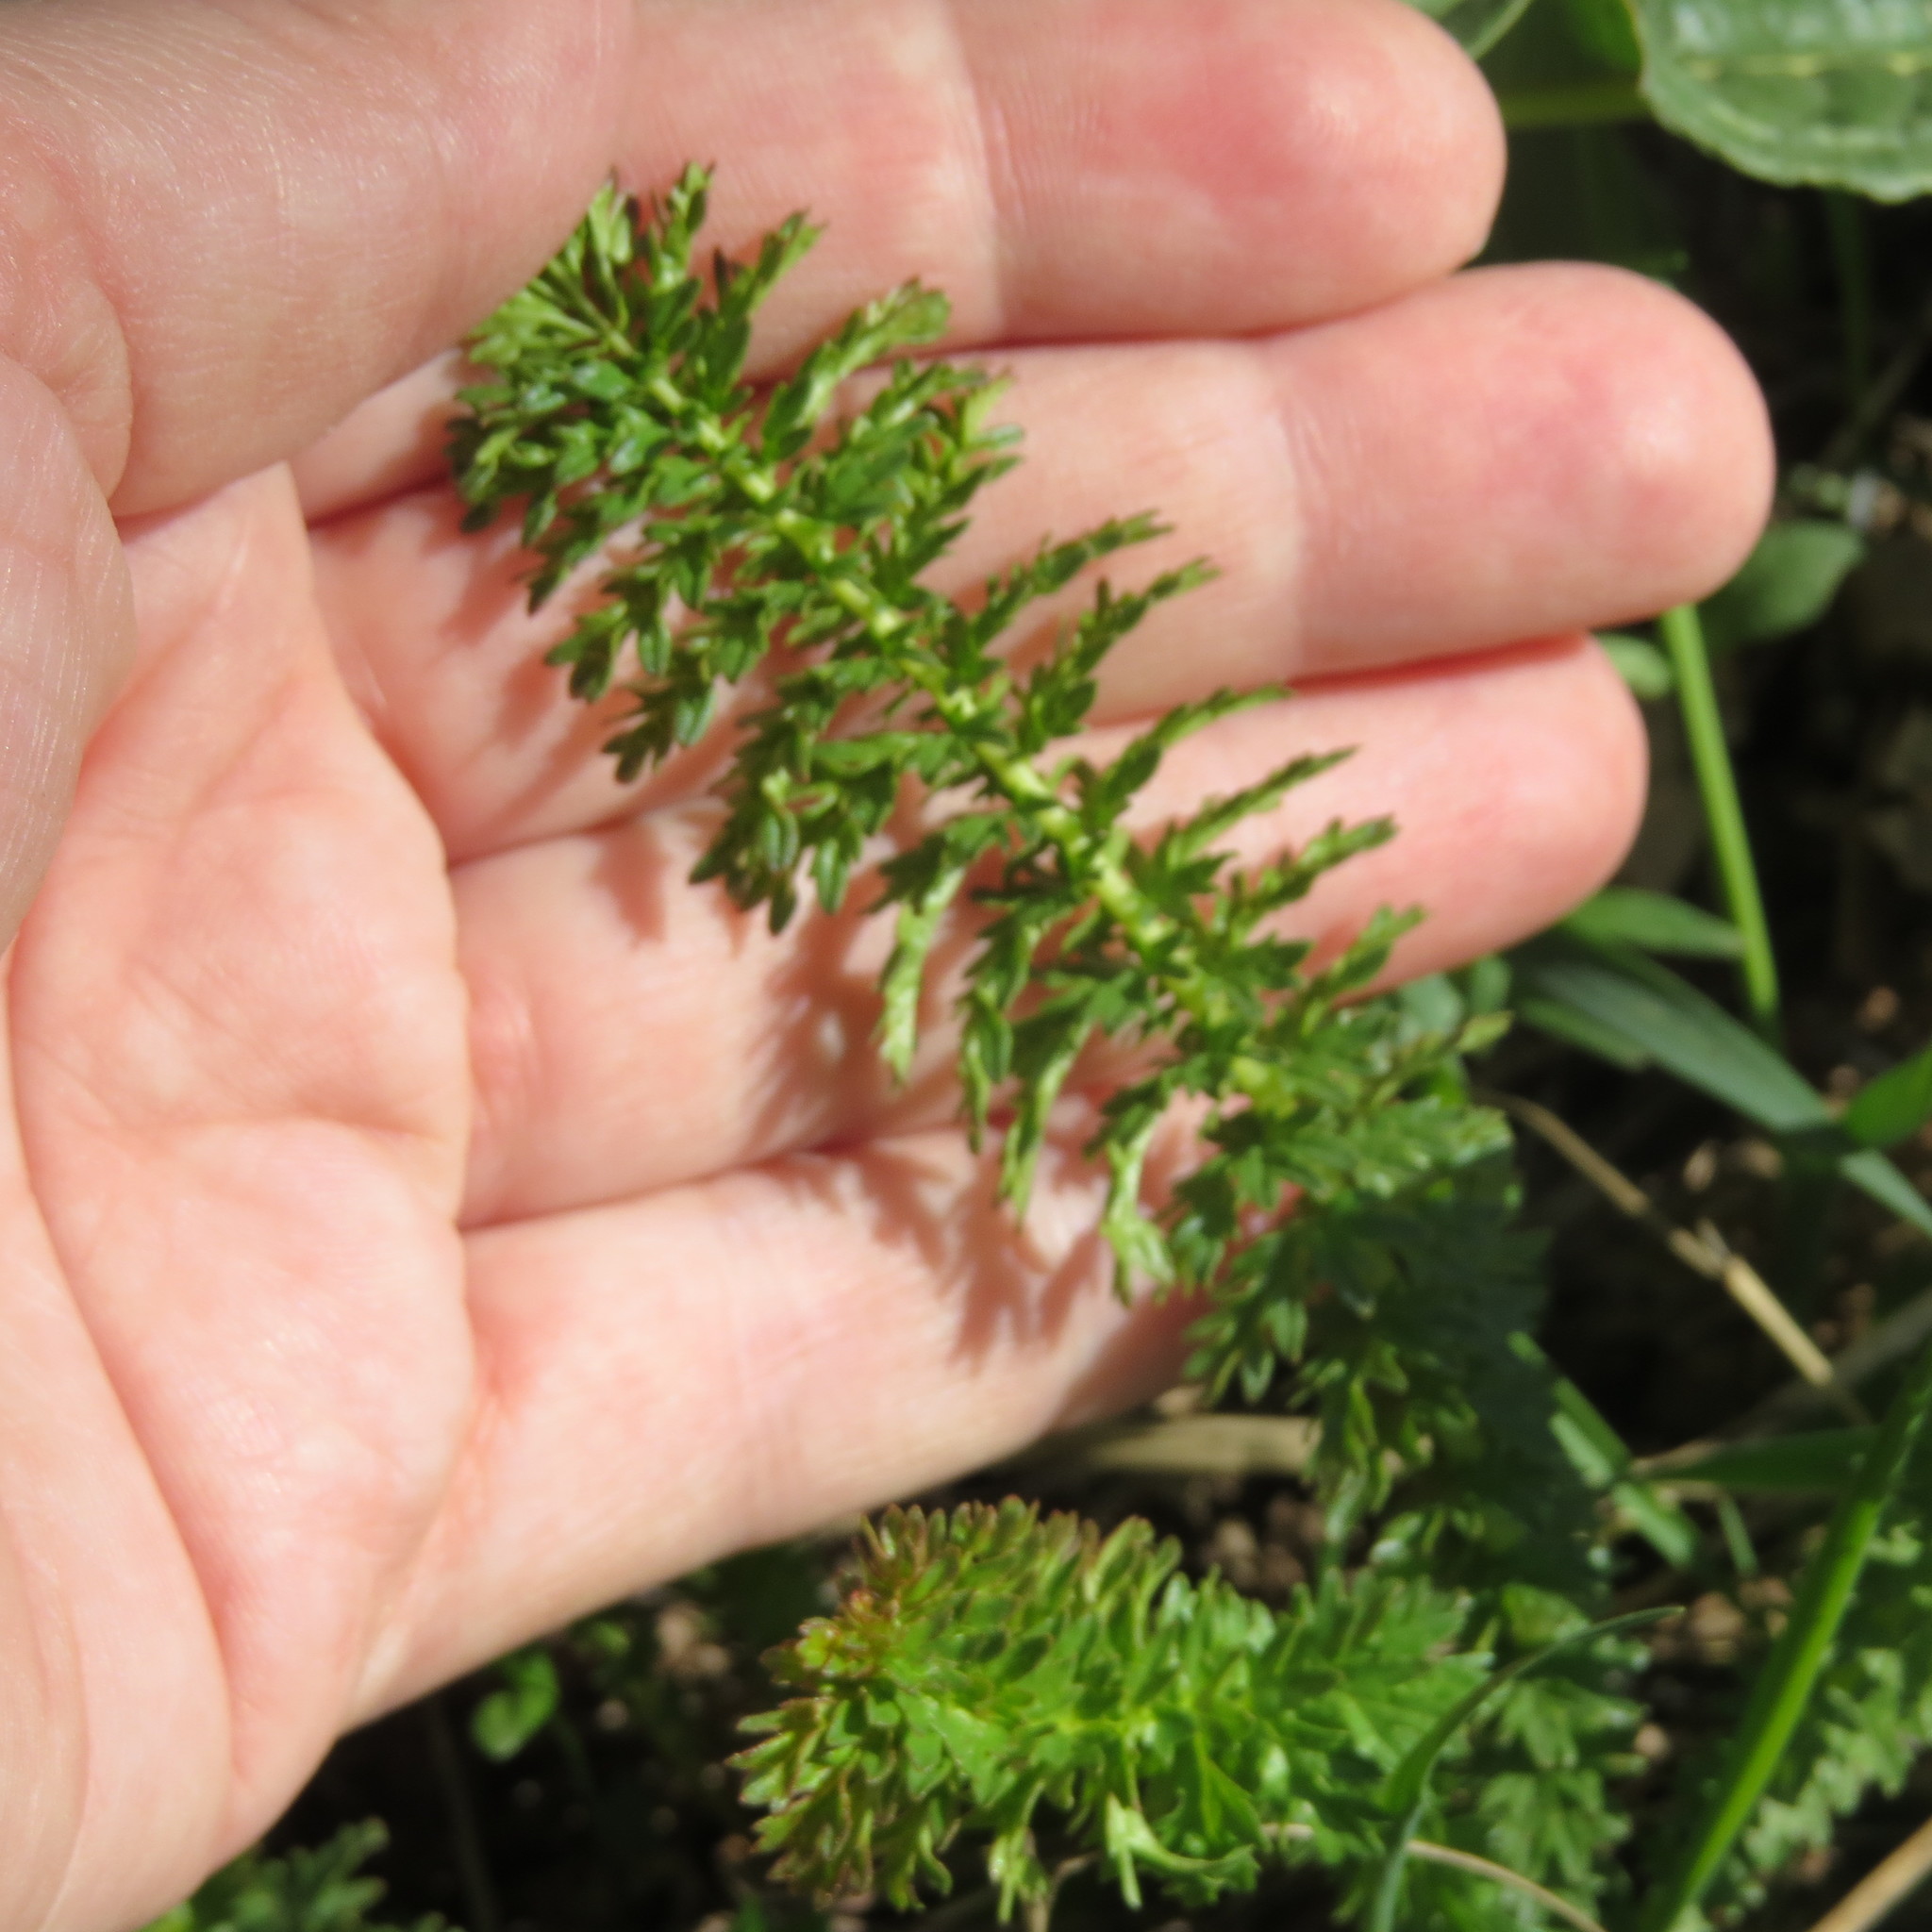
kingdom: Plantae
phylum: Tracheophyta
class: Magnoliopsida
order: Rosales
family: Rosaceae
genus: Filipendula
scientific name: Filipendula vulgaris
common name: Dropwort
